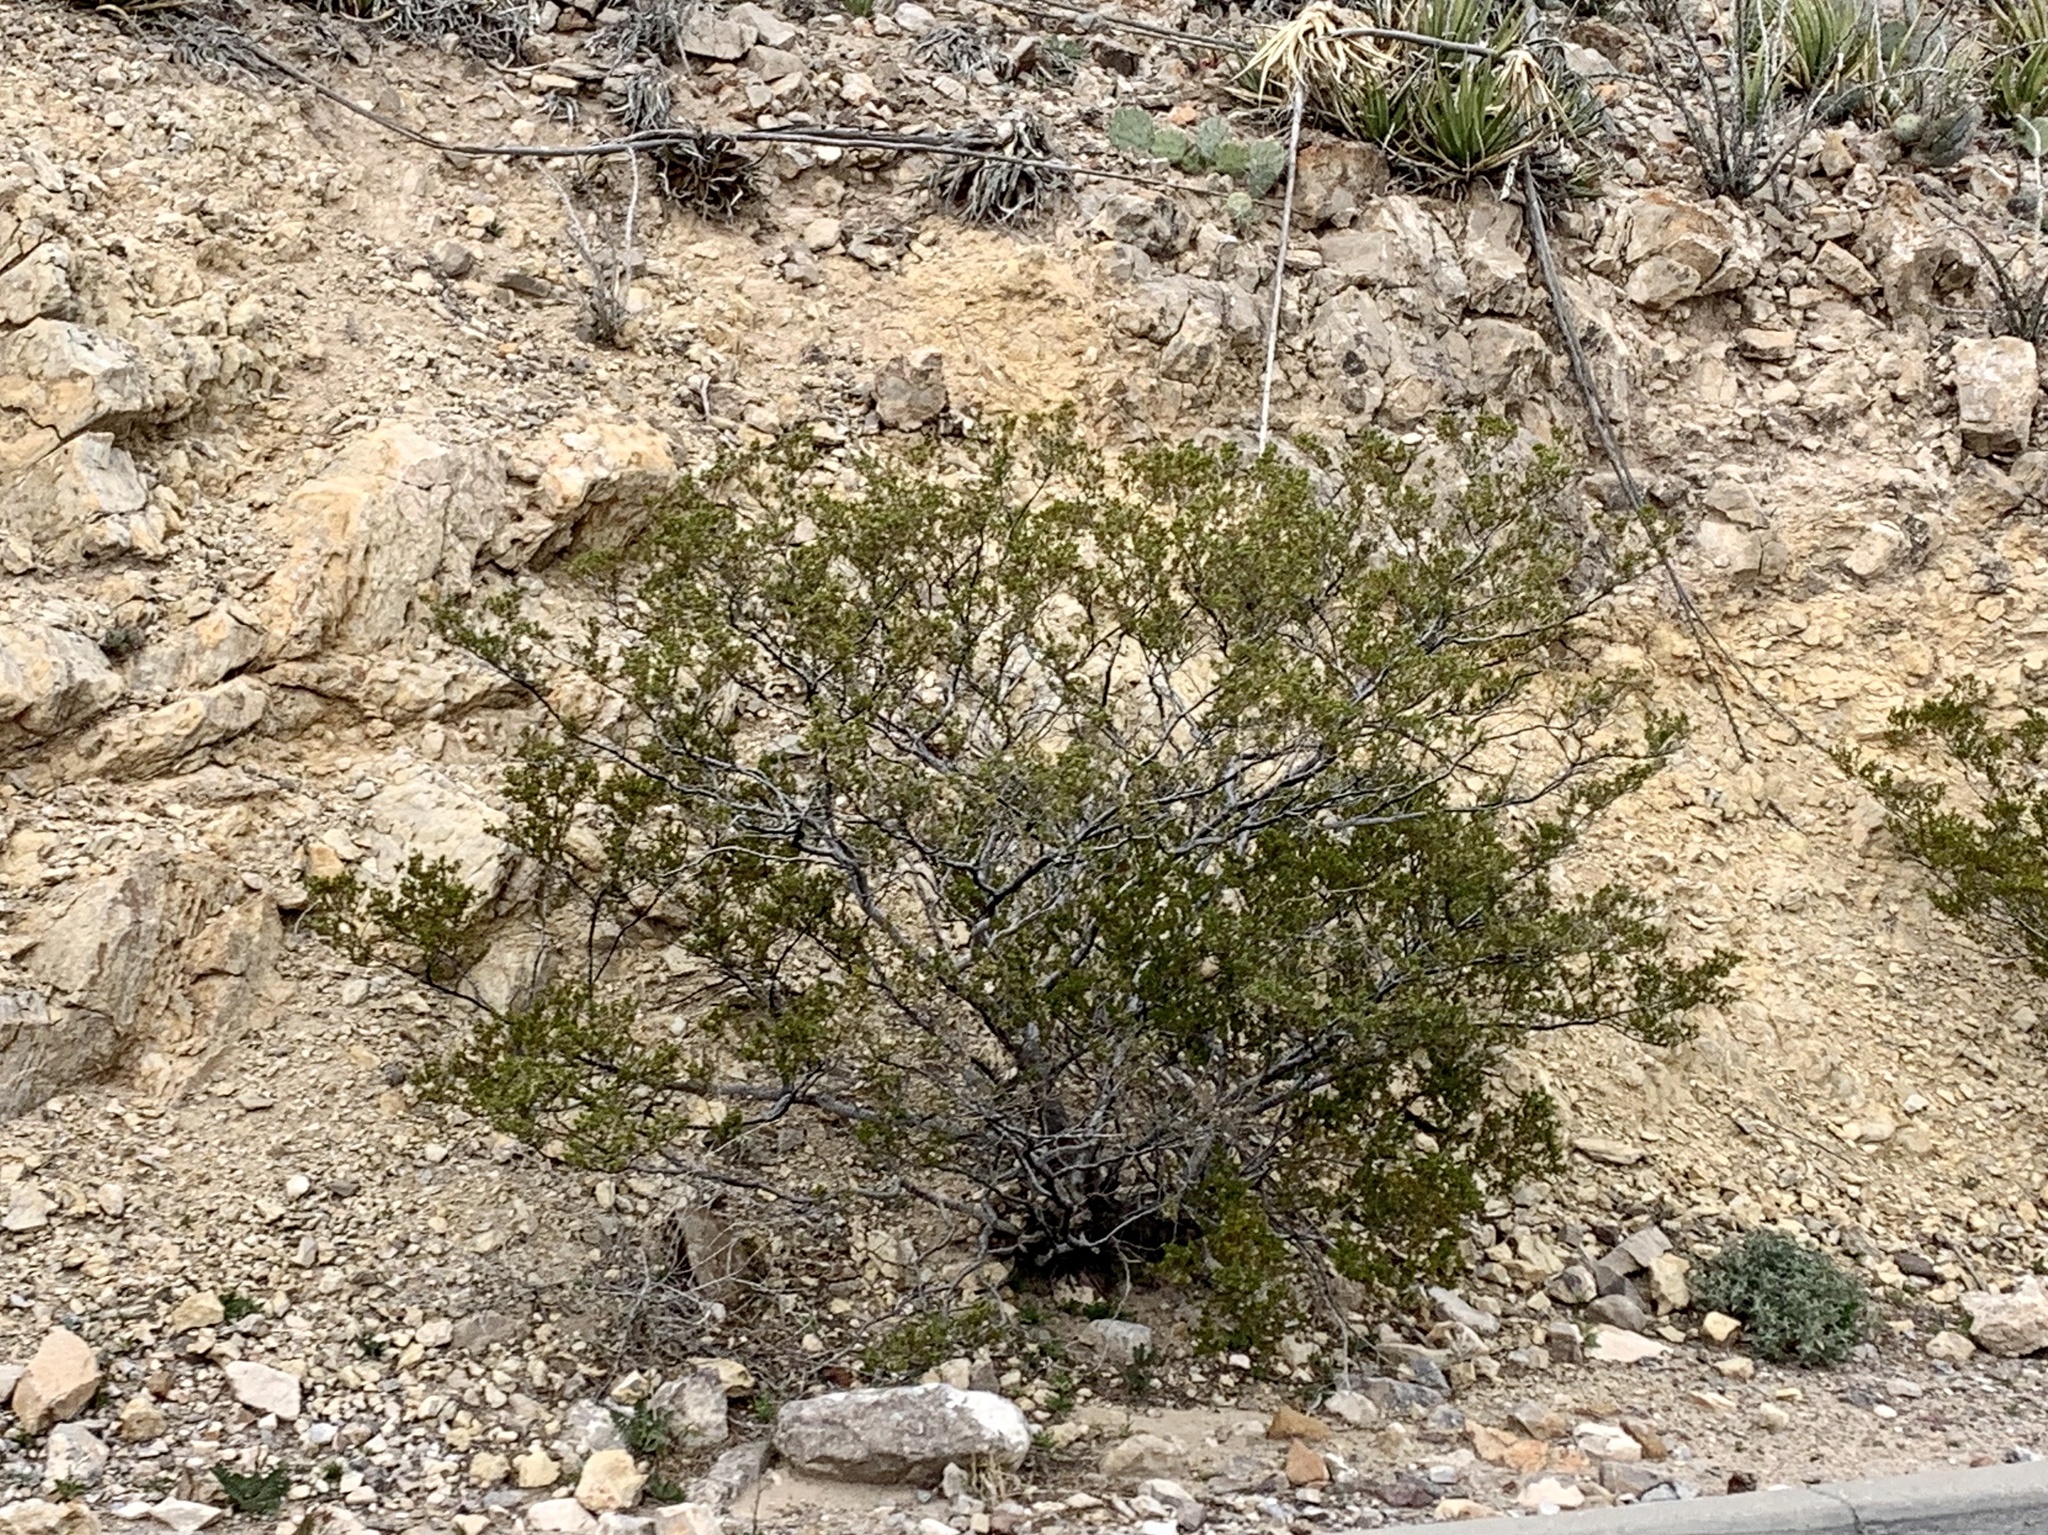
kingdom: Plantae
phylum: Tracheophyta
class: Magnoliopsida
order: Zygophyllales
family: Zygophyllaceae
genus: Larrea
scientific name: Larrea tridentata
